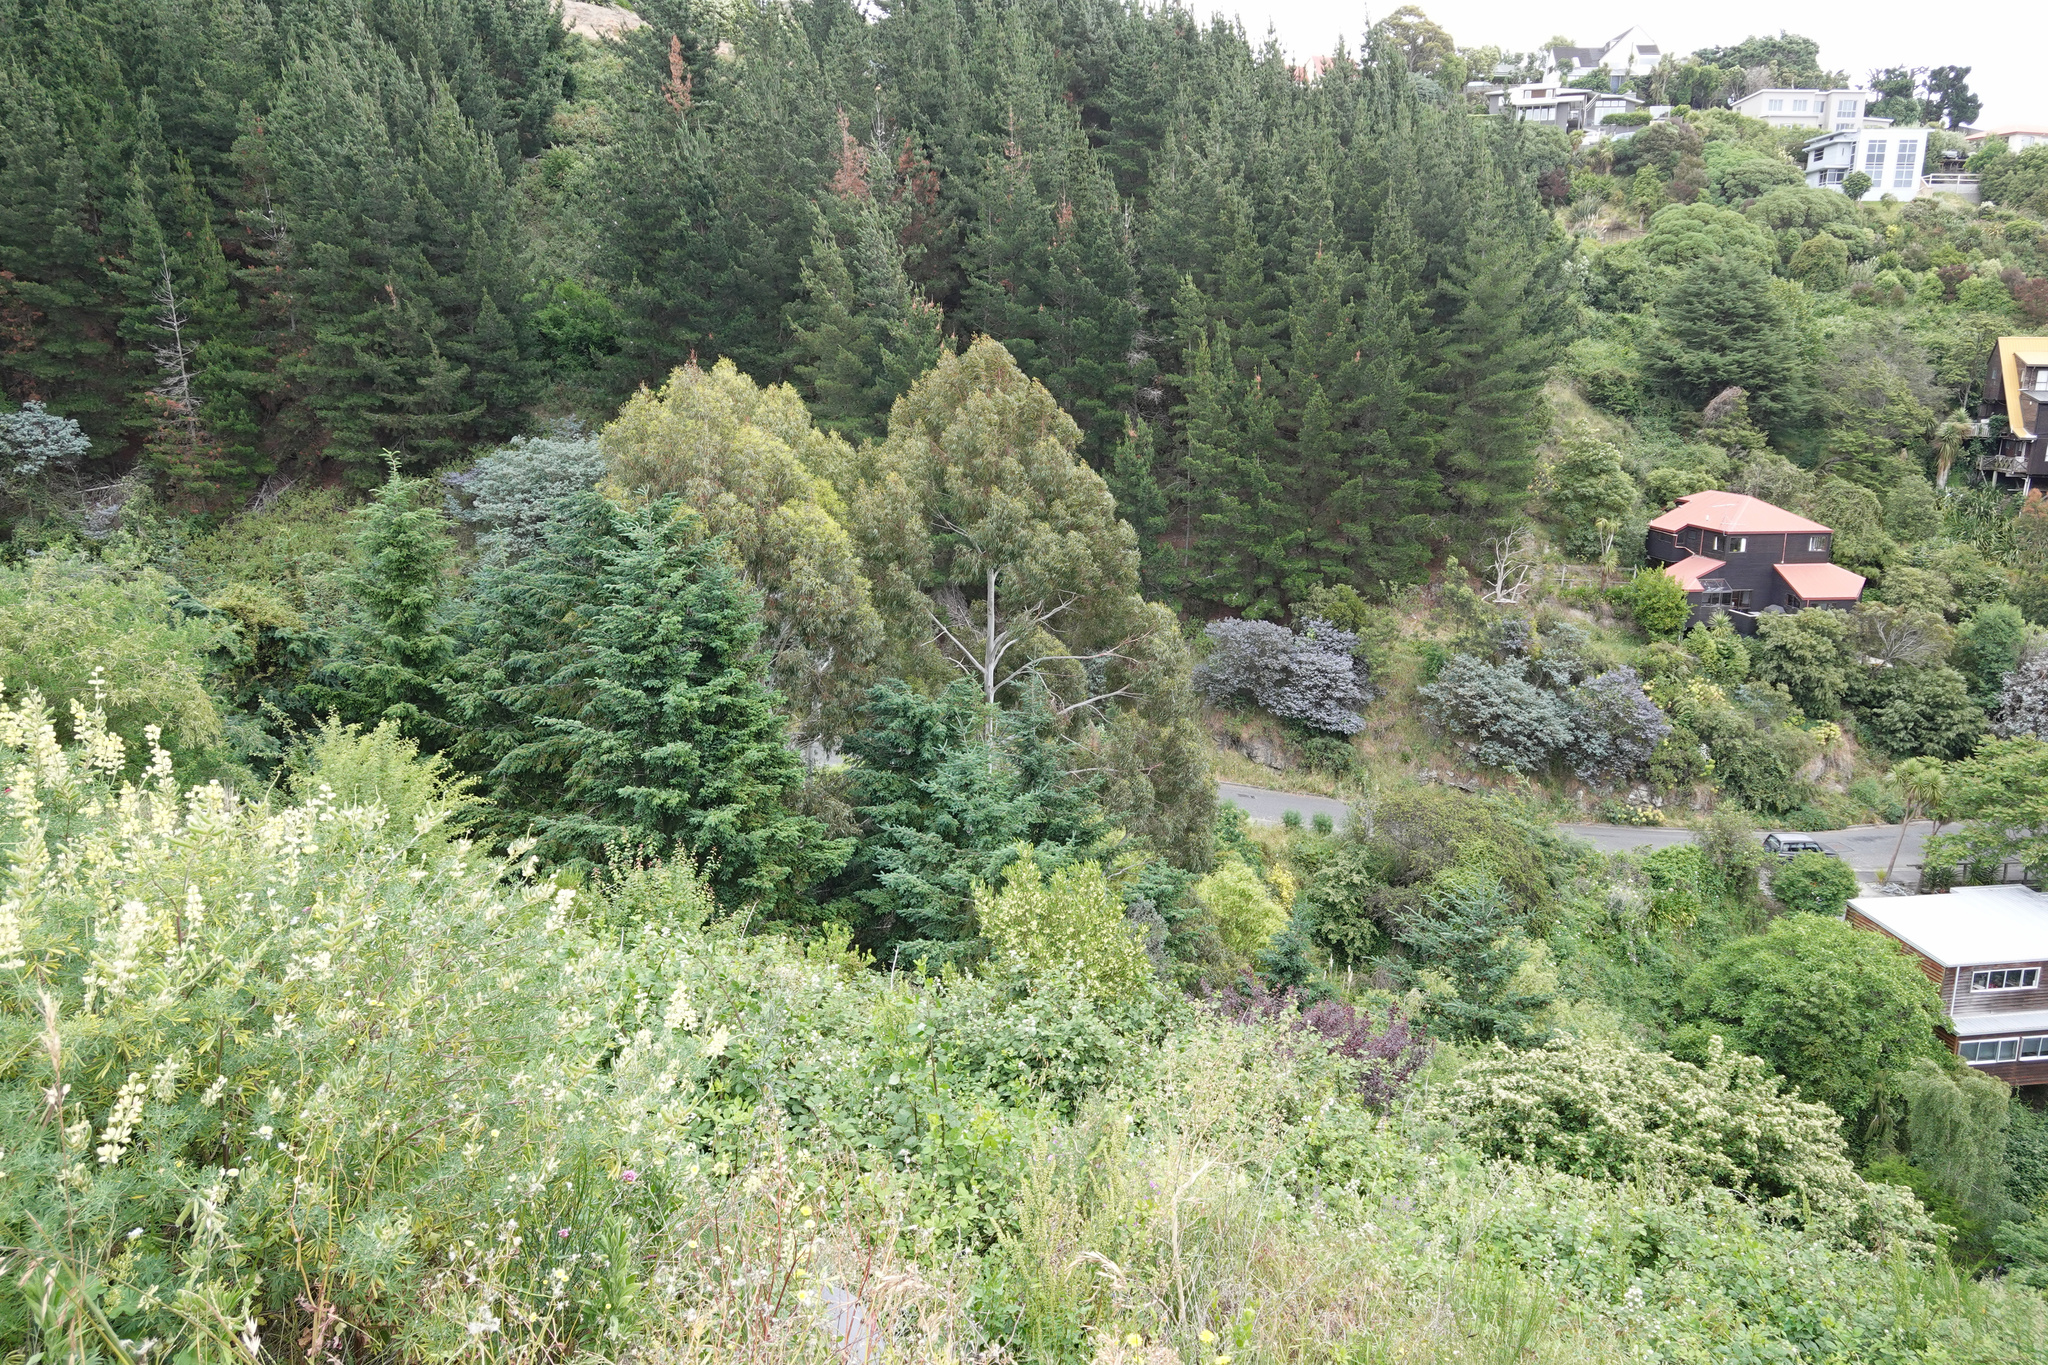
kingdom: Plantae
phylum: Tracheophyta
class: Pinopsida
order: Pinales
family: Pinaceae
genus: Pseudotsuga
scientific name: Pseudotsuga menziesii
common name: Douglas fir
